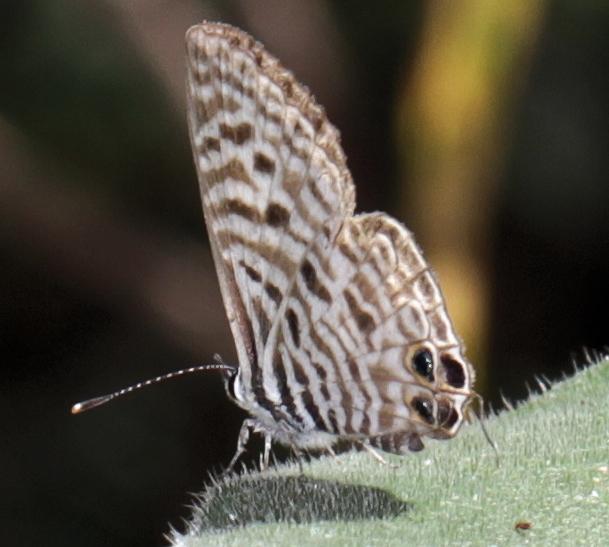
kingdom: Animalia
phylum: Arthropoda
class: Insecta
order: Lepidoptera
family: Lycaenidae
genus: Leptotes
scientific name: Leptotes
